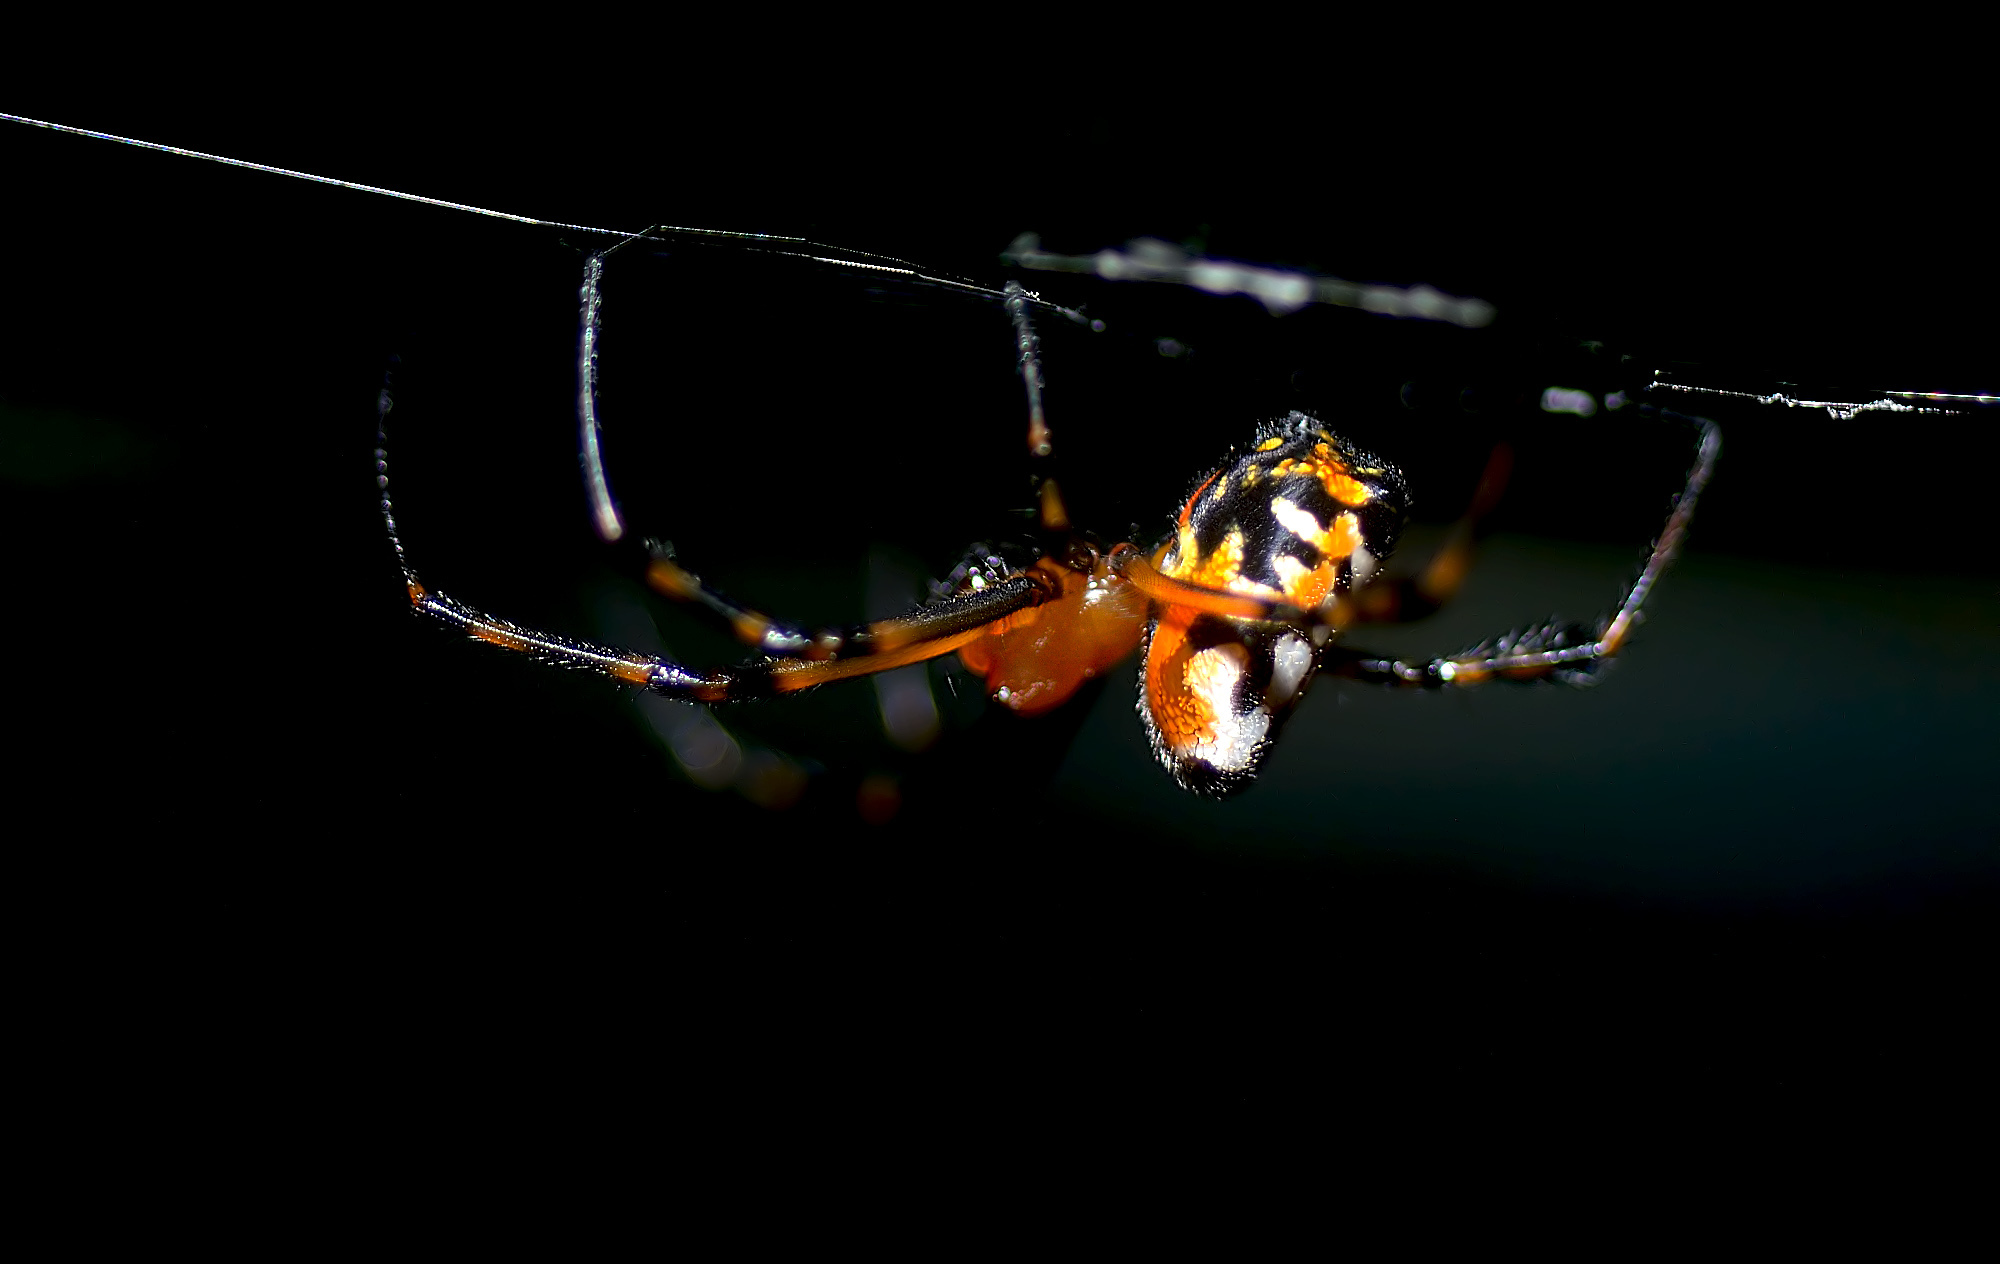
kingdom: Animalia
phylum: Arthropoda
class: Arachnida
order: Araneae
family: Tetragnathidae
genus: Leucauge
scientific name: Leucauge fastigata
